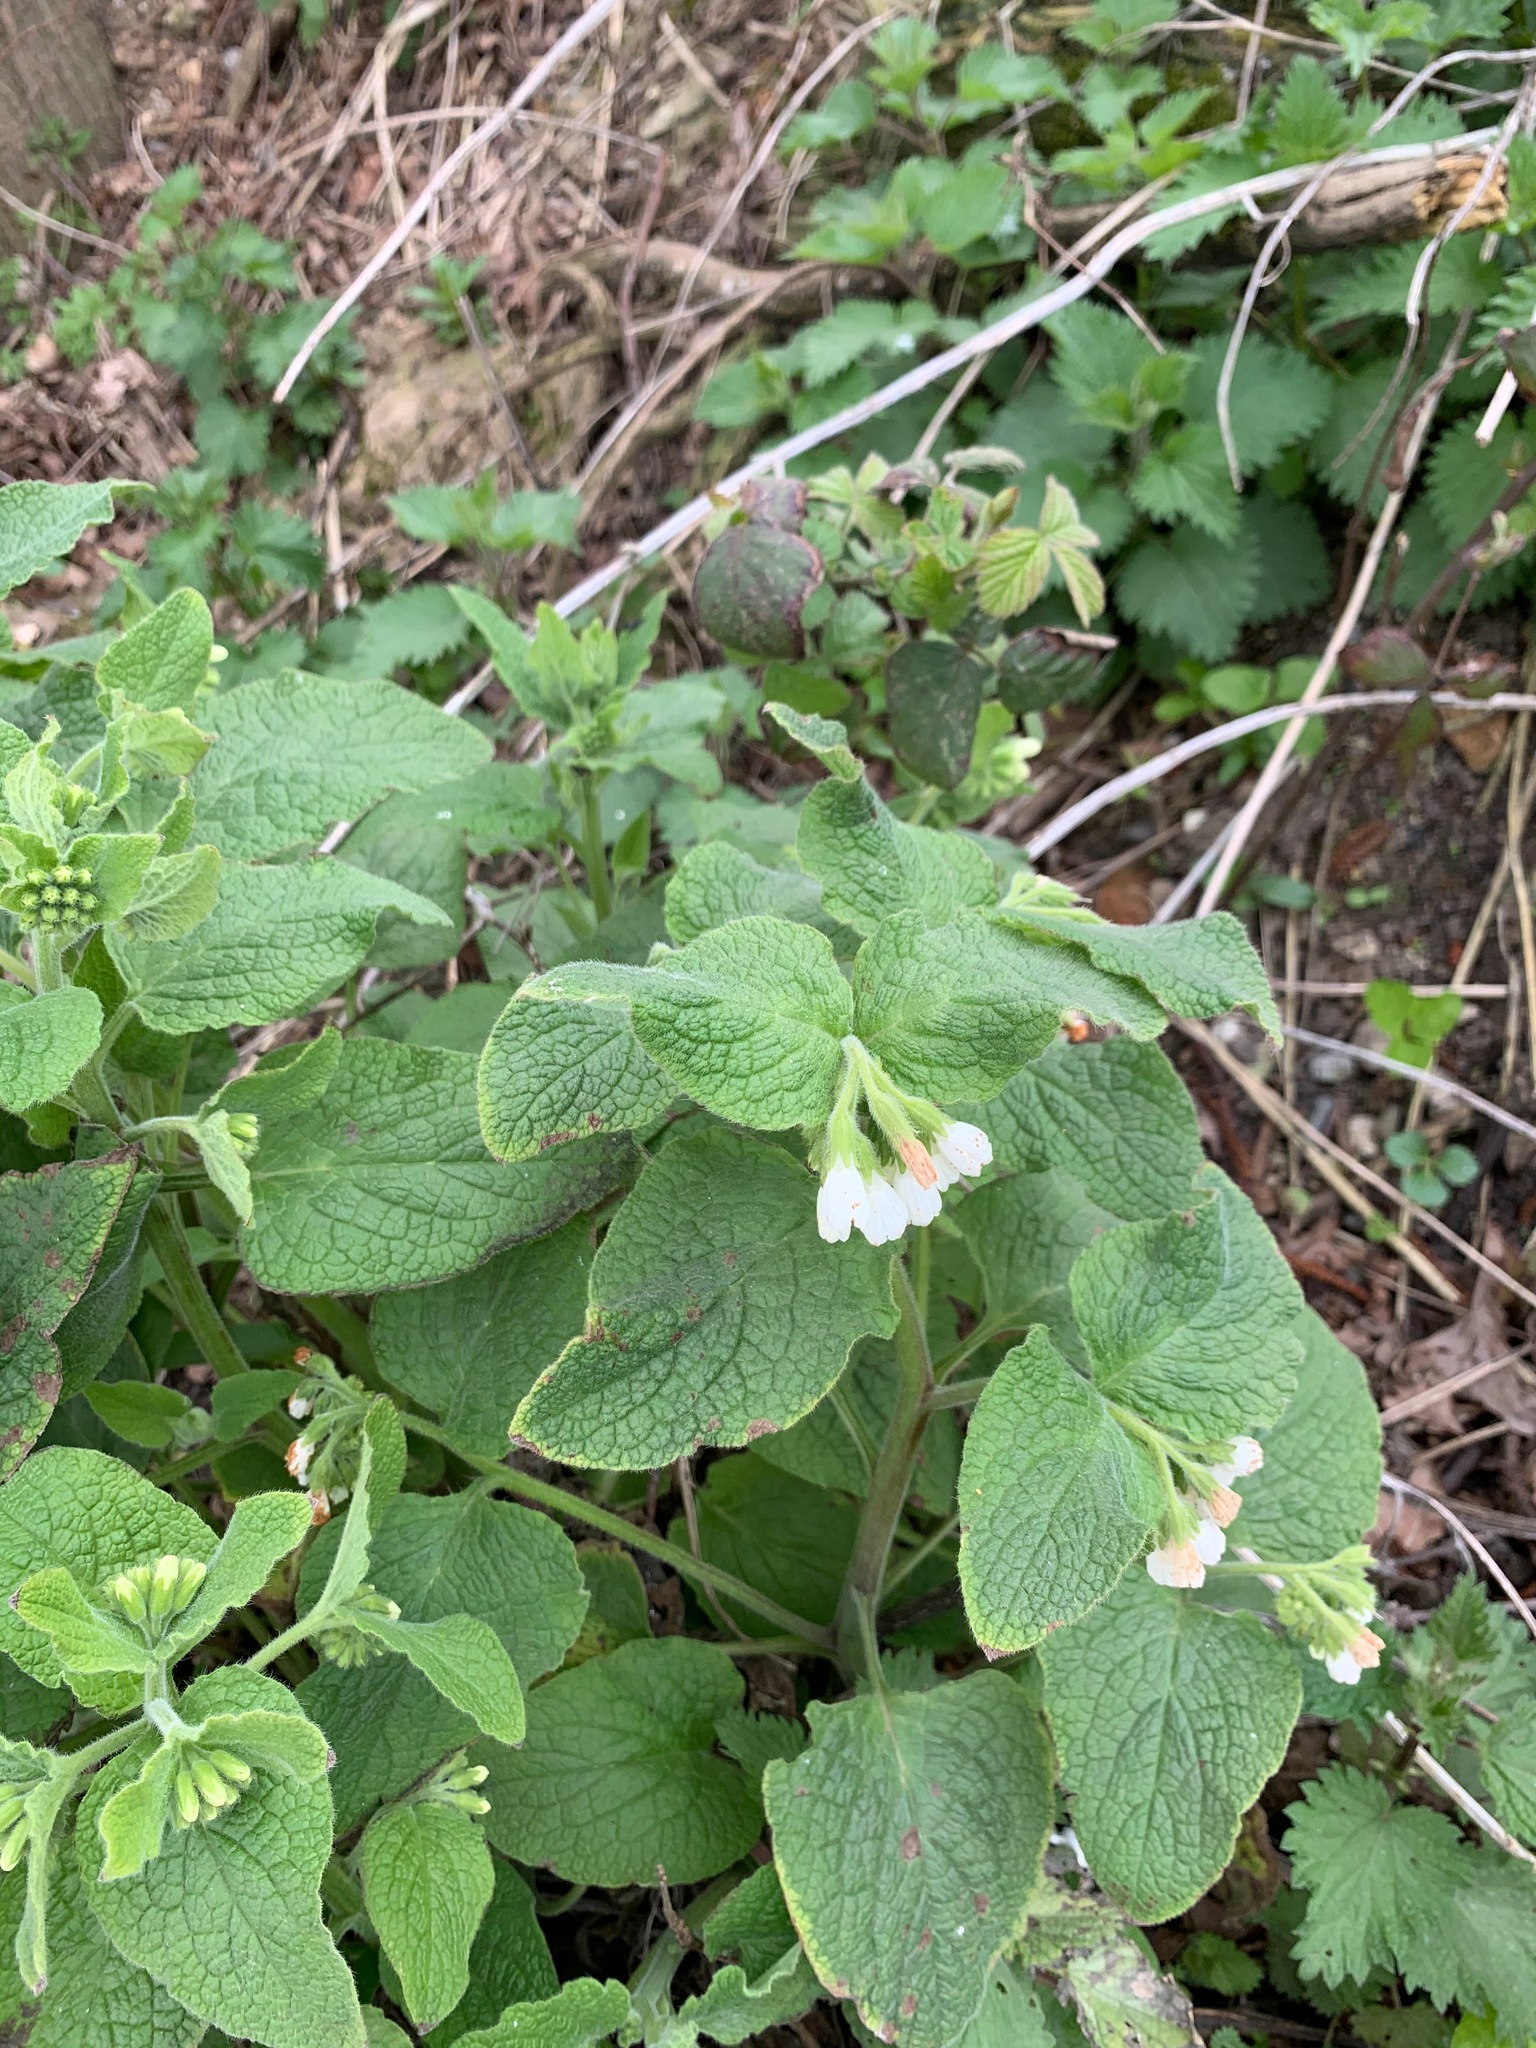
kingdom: Plantae
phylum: Tracheophyta
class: Magnoliopsida
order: Boraginales
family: Boraginaceae
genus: Symphytum
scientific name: Symphytum orientale
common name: White comfrey
